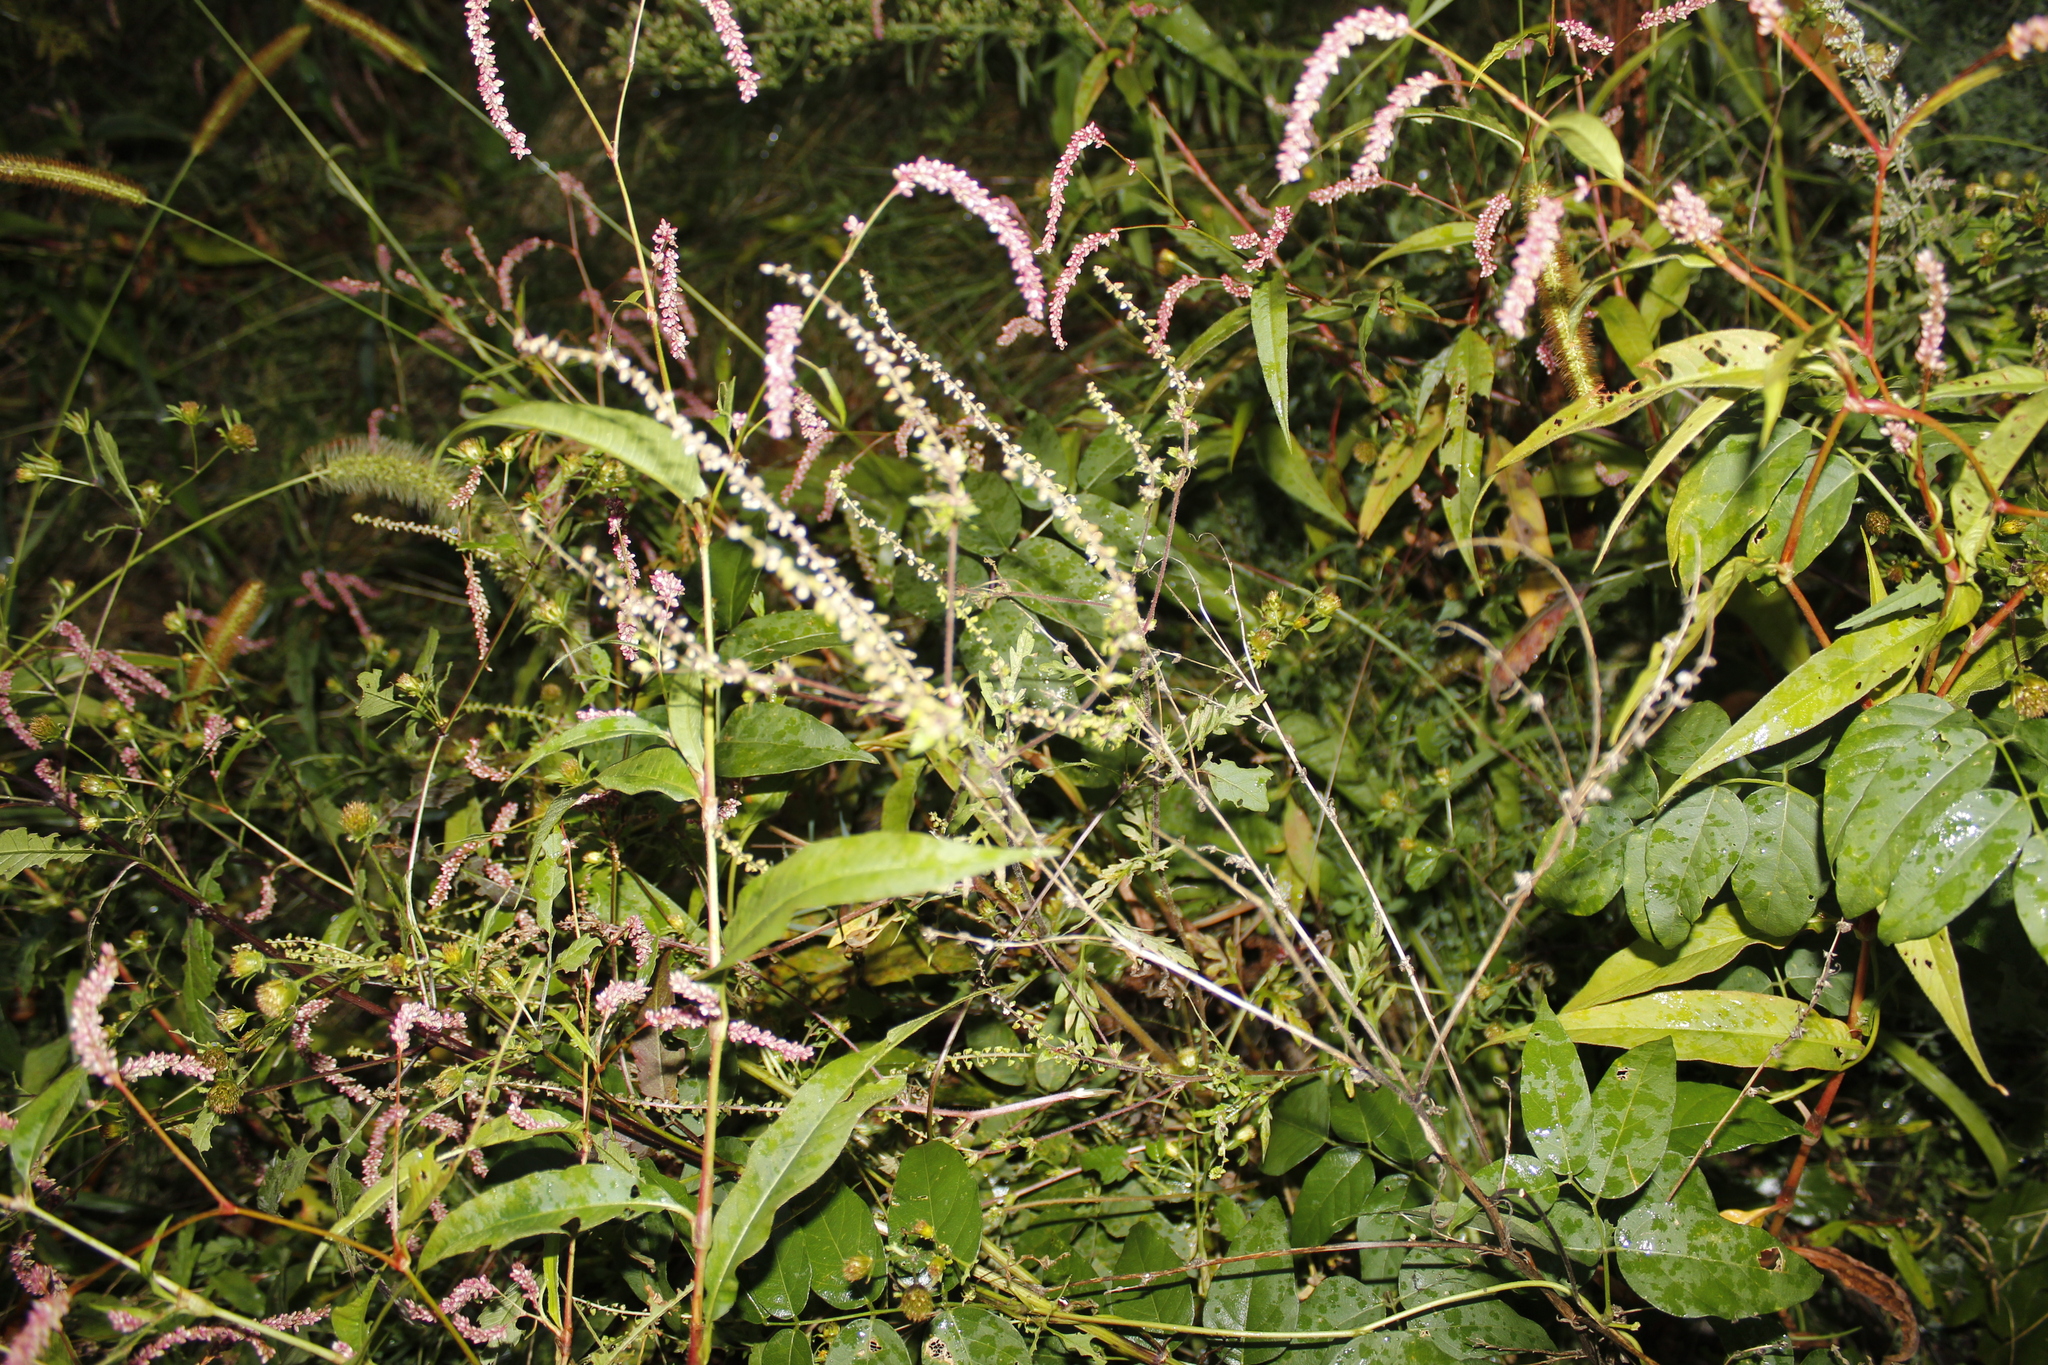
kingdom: Plantae
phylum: Tracheophyta
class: Magnoliopsida
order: Caryophyllales
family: Polygonaceae
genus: Persicaria
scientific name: Persicaria lapathifolia
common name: Curlytop knotweed
